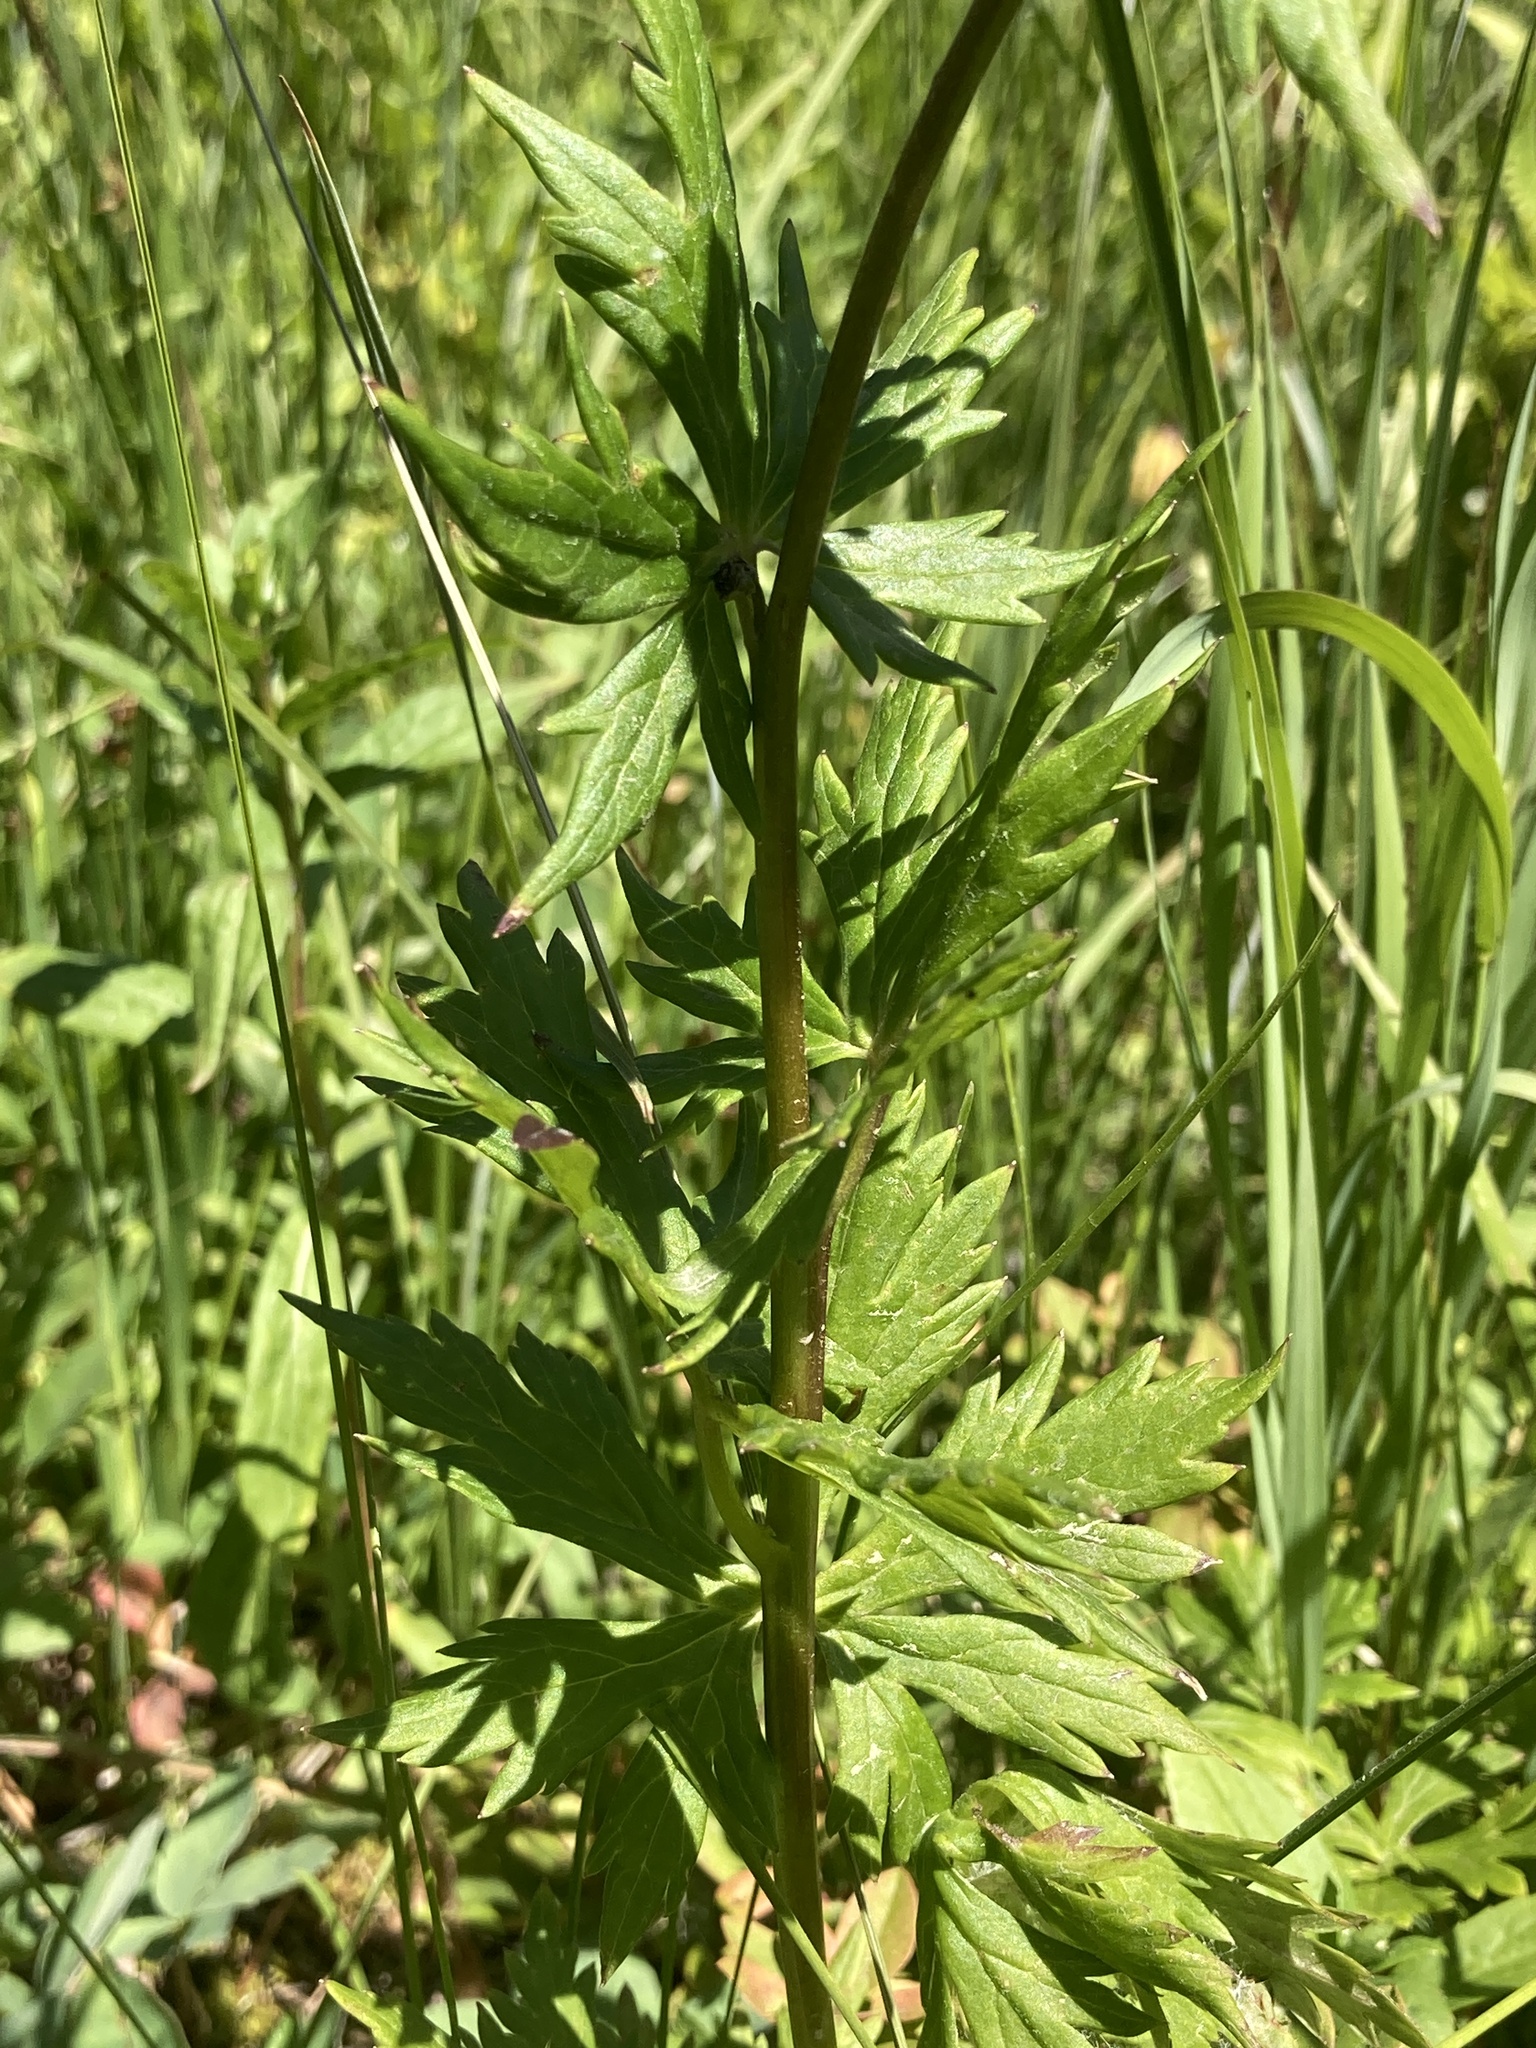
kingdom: Plantae
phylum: Tracheophyta
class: Magnoliopsida
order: Ranunculales
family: Ranunculaceae
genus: Aconitum
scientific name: Aconitum columbianum
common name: Columbia aconite
